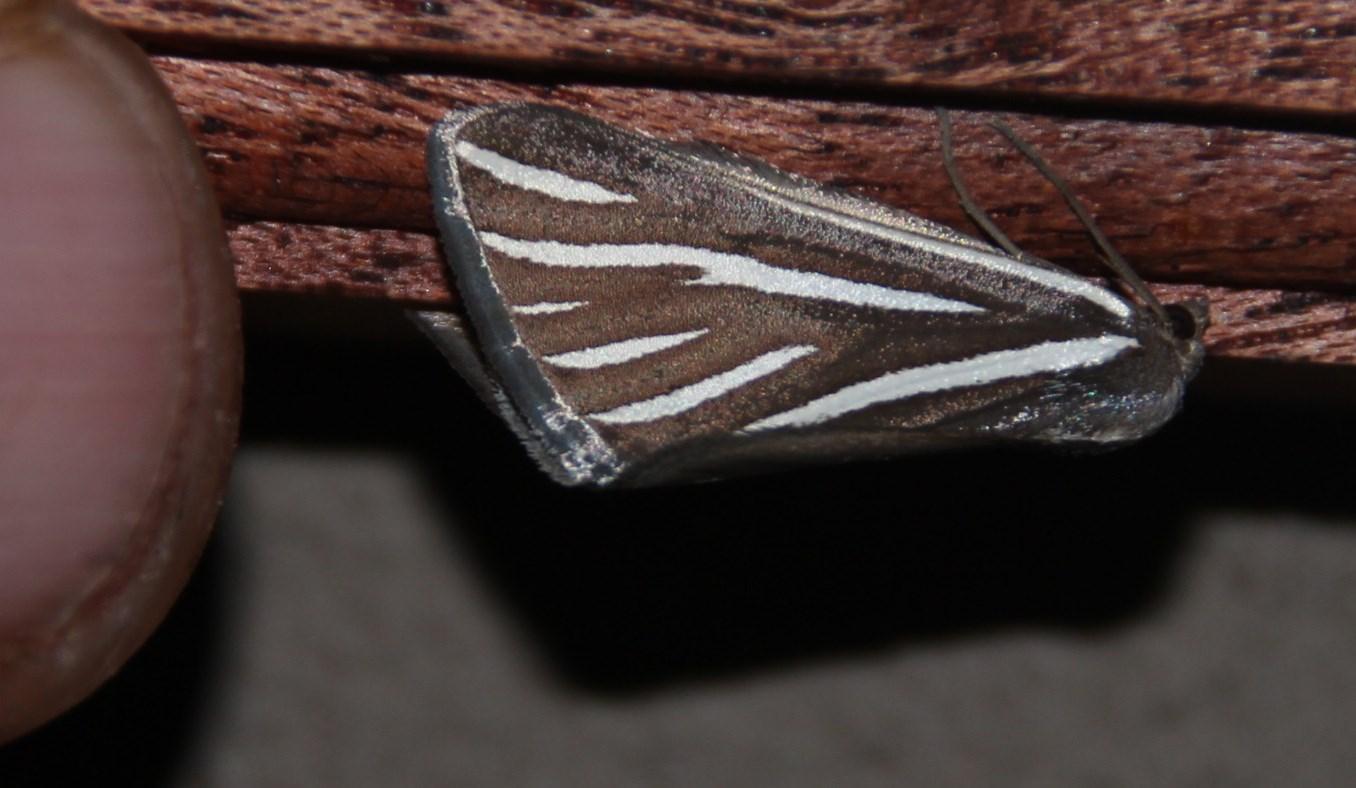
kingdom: Animalia
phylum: Arthropoda
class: Insecta
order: Lepidoptera
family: Geometridae
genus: Pseudomaenas
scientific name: Pseudomaenas alcidata
